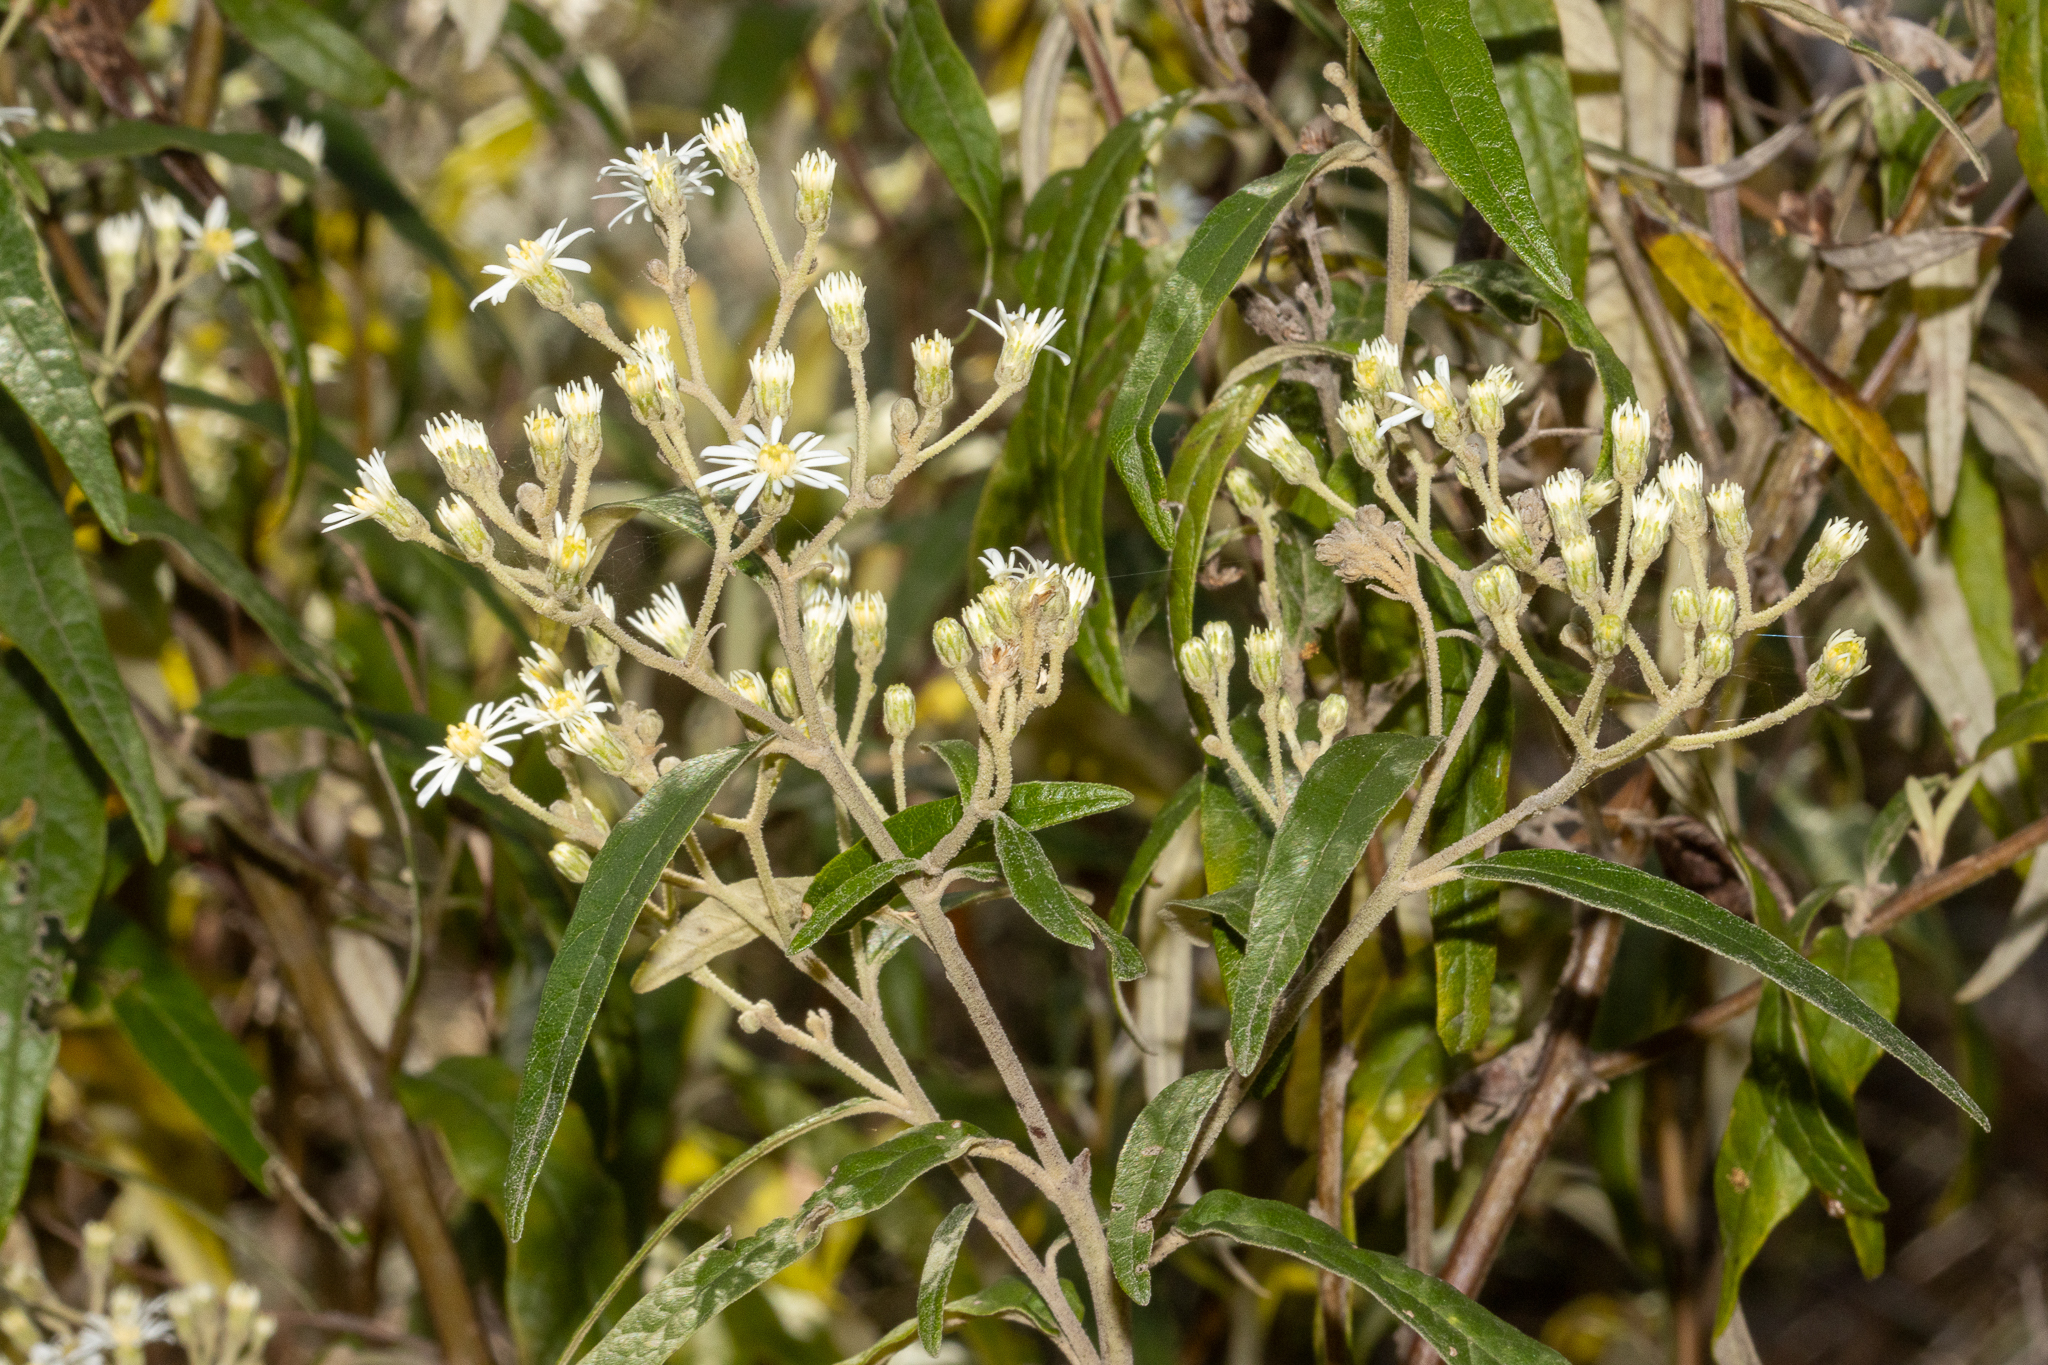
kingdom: Plantae
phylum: Tracheophyta
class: Magnoliopsida
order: Asterales
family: Asteraceae
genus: Olearia
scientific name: Olearia lirata
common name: Dusty daisybush
